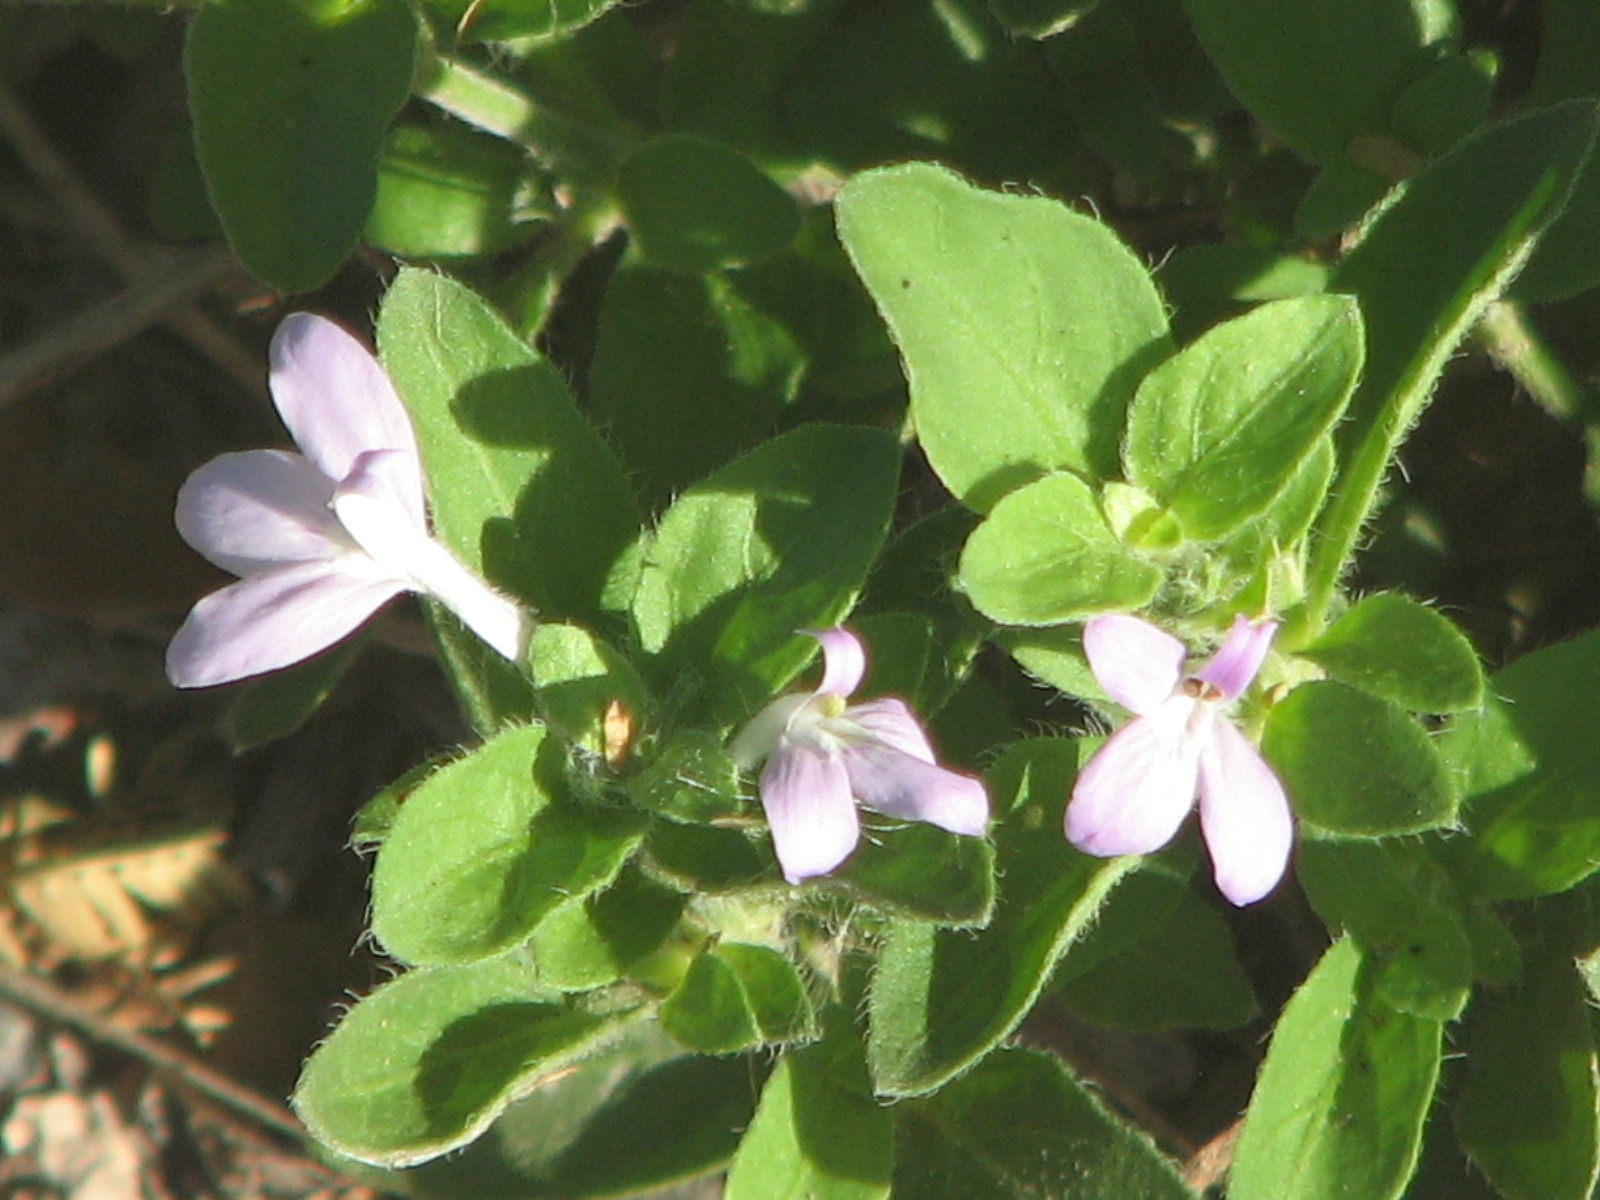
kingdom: Plantae
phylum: Tracheophyta
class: Magnoliopsida
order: Lamiales
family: Acanthaceae
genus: Justicia
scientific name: Justicia pilosella
